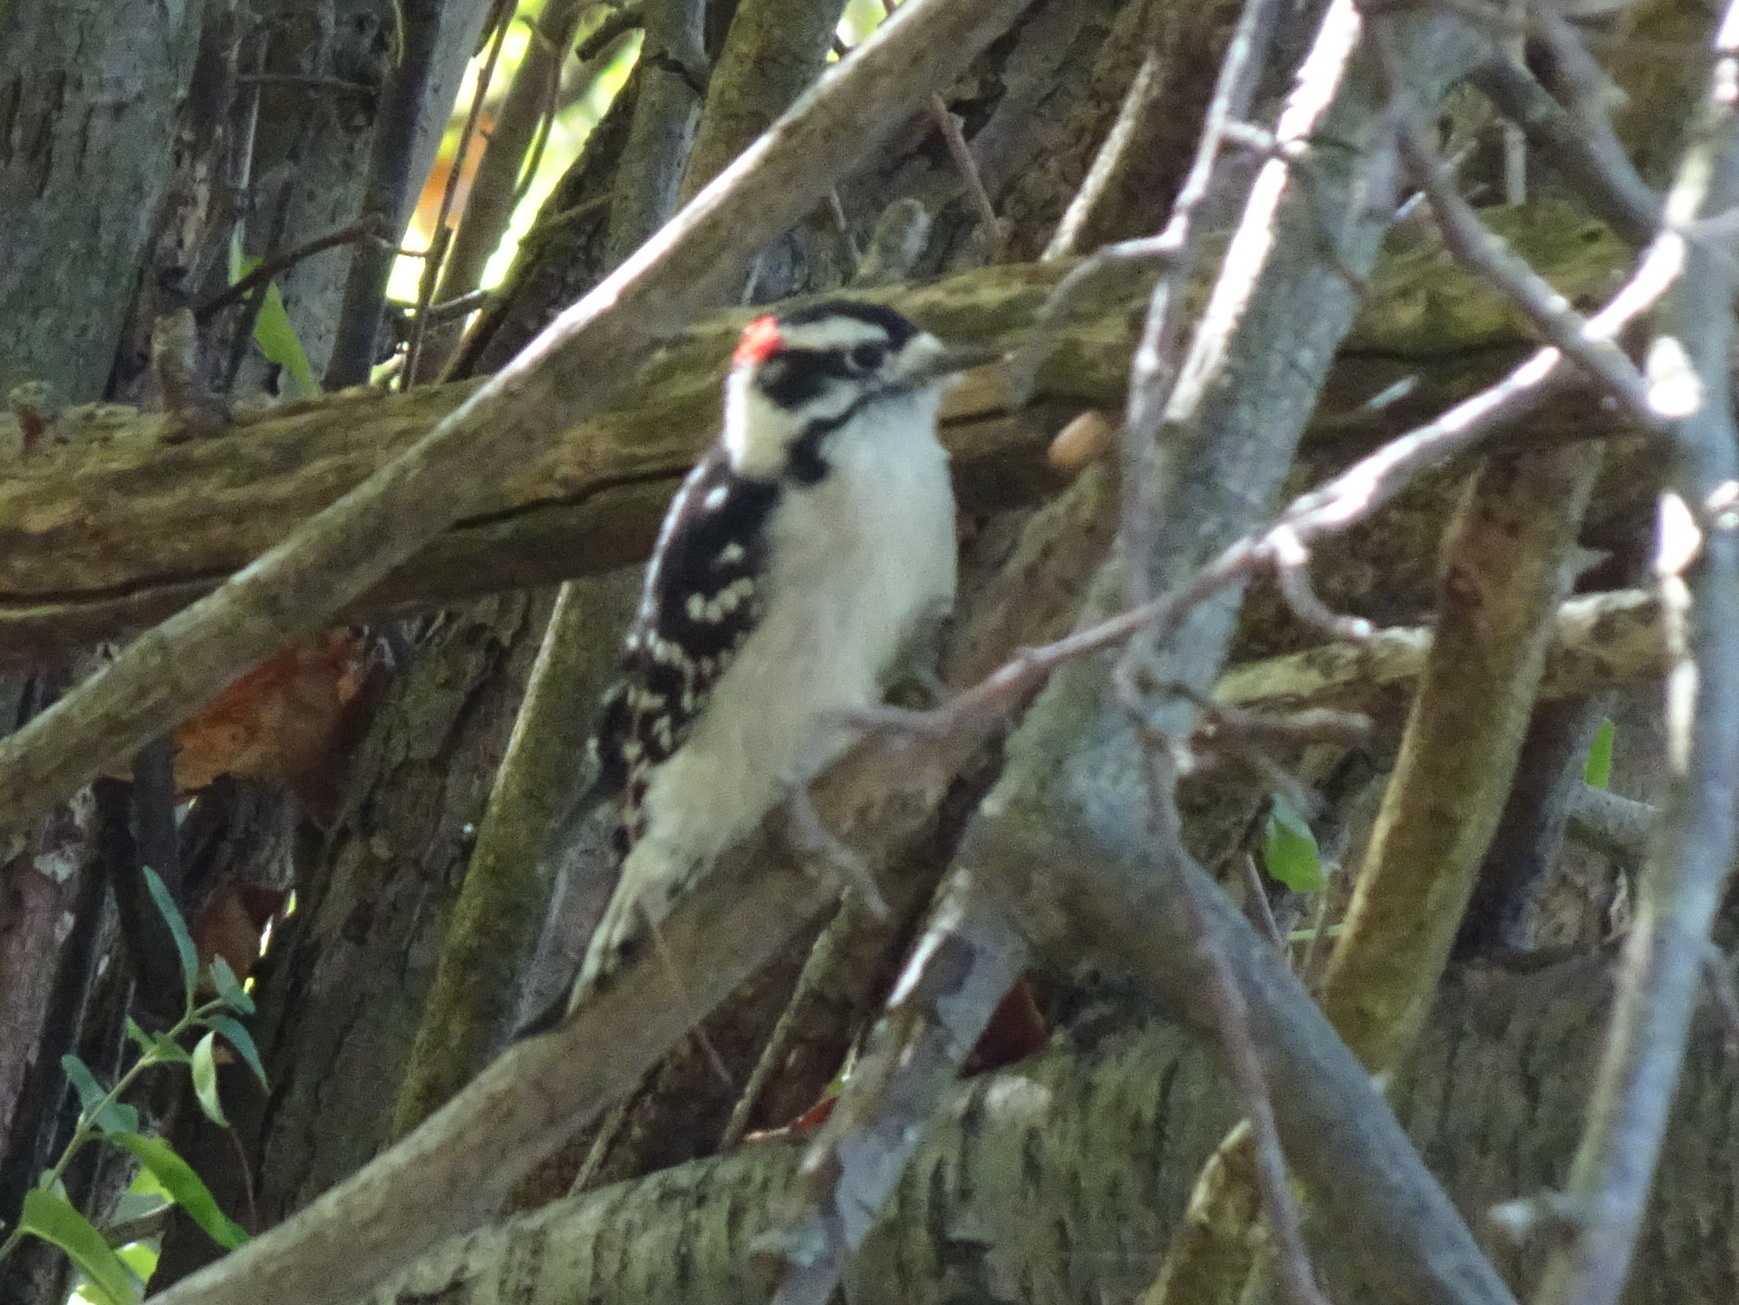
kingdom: Animalia
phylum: Chordata
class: Aves
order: Piciformes
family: Picidae
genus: Dryobates
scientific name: Dryobates pubescens
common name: Downy woodpecker
